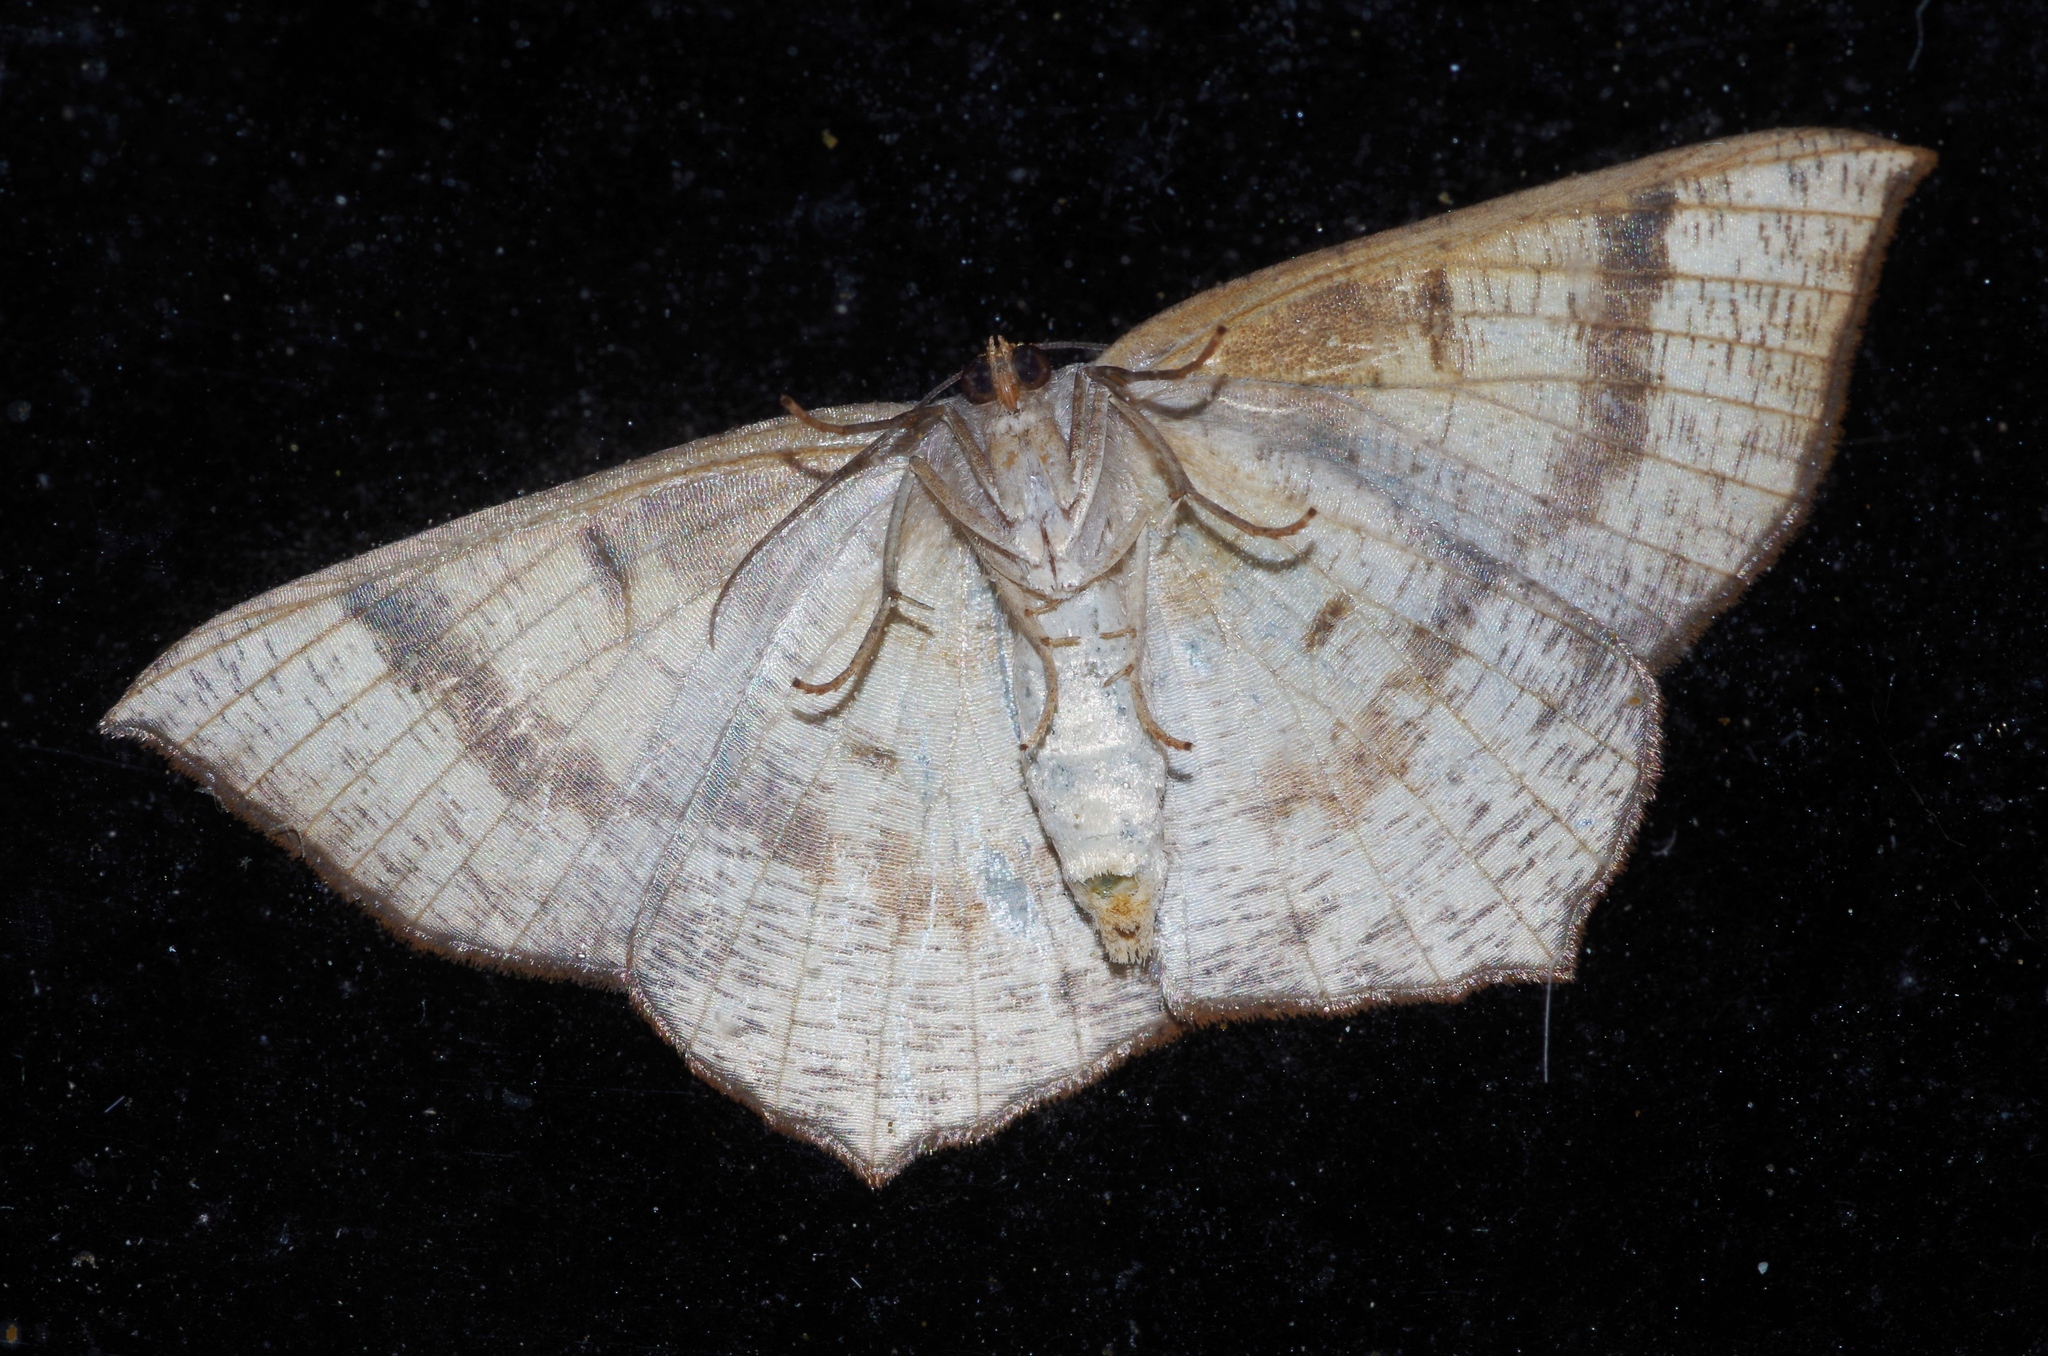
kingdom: Animalia
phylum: Arthropoda
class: Insecta
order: Lepidoptera
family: Geometridae
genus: Peratostega
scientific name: Peratostega deletaria
